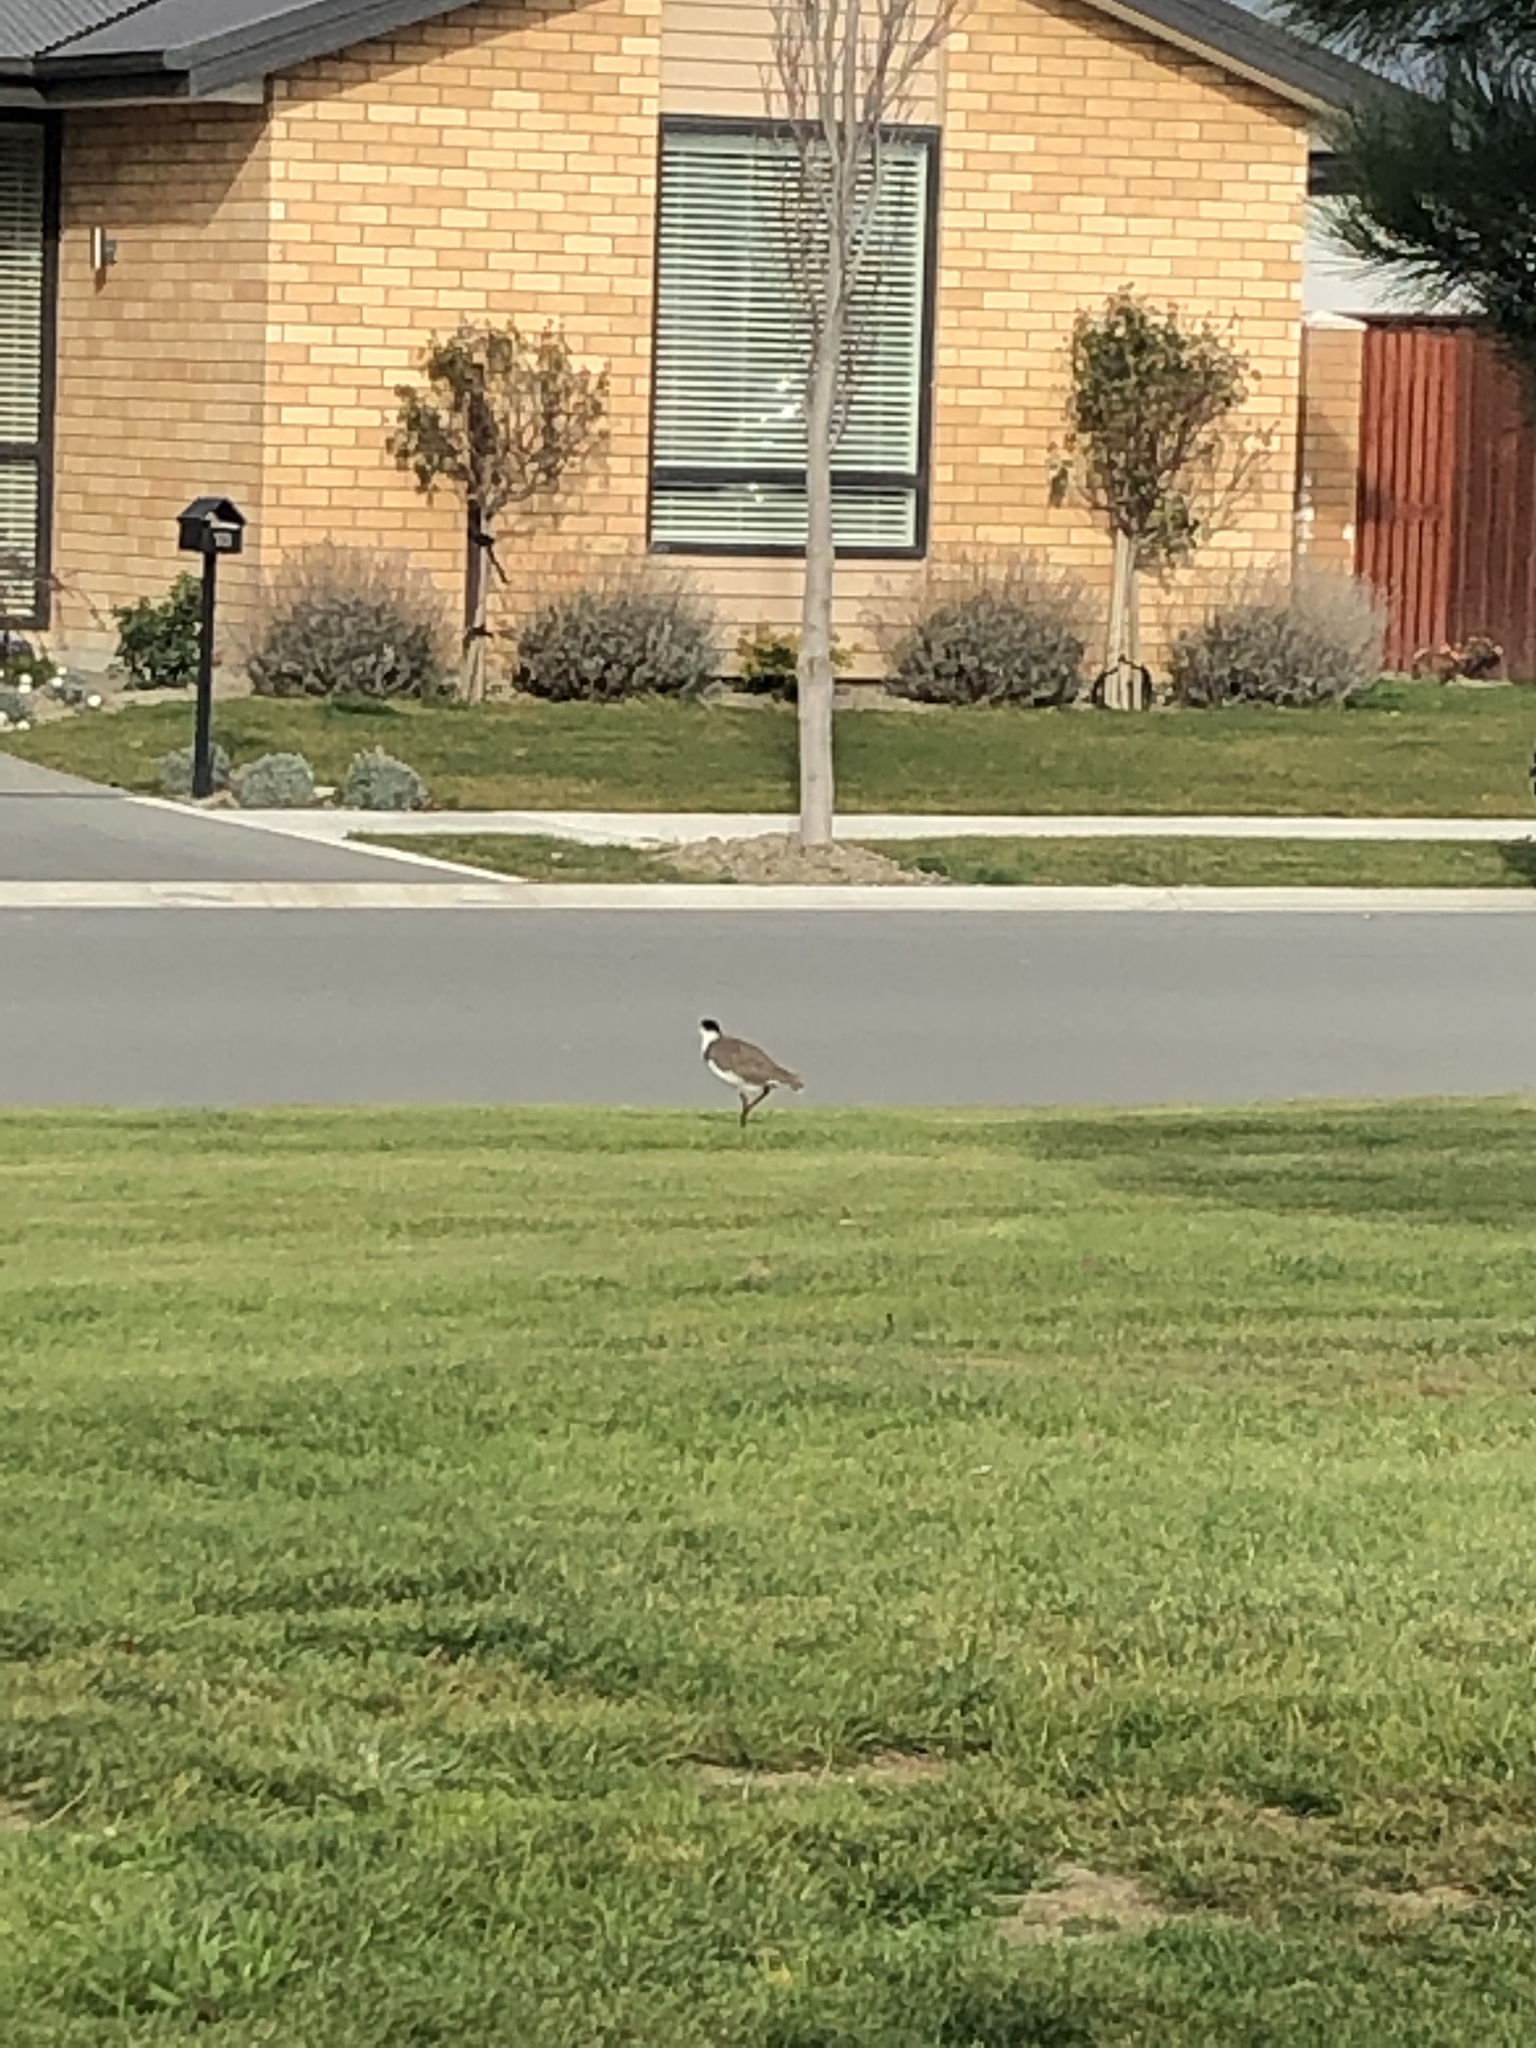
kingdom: Animalia
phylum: Chordata
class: Aves
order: Charadriiformes
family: Charadriidae
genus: Vanellus
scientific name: Vanellus miles
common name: Masked lapwing
